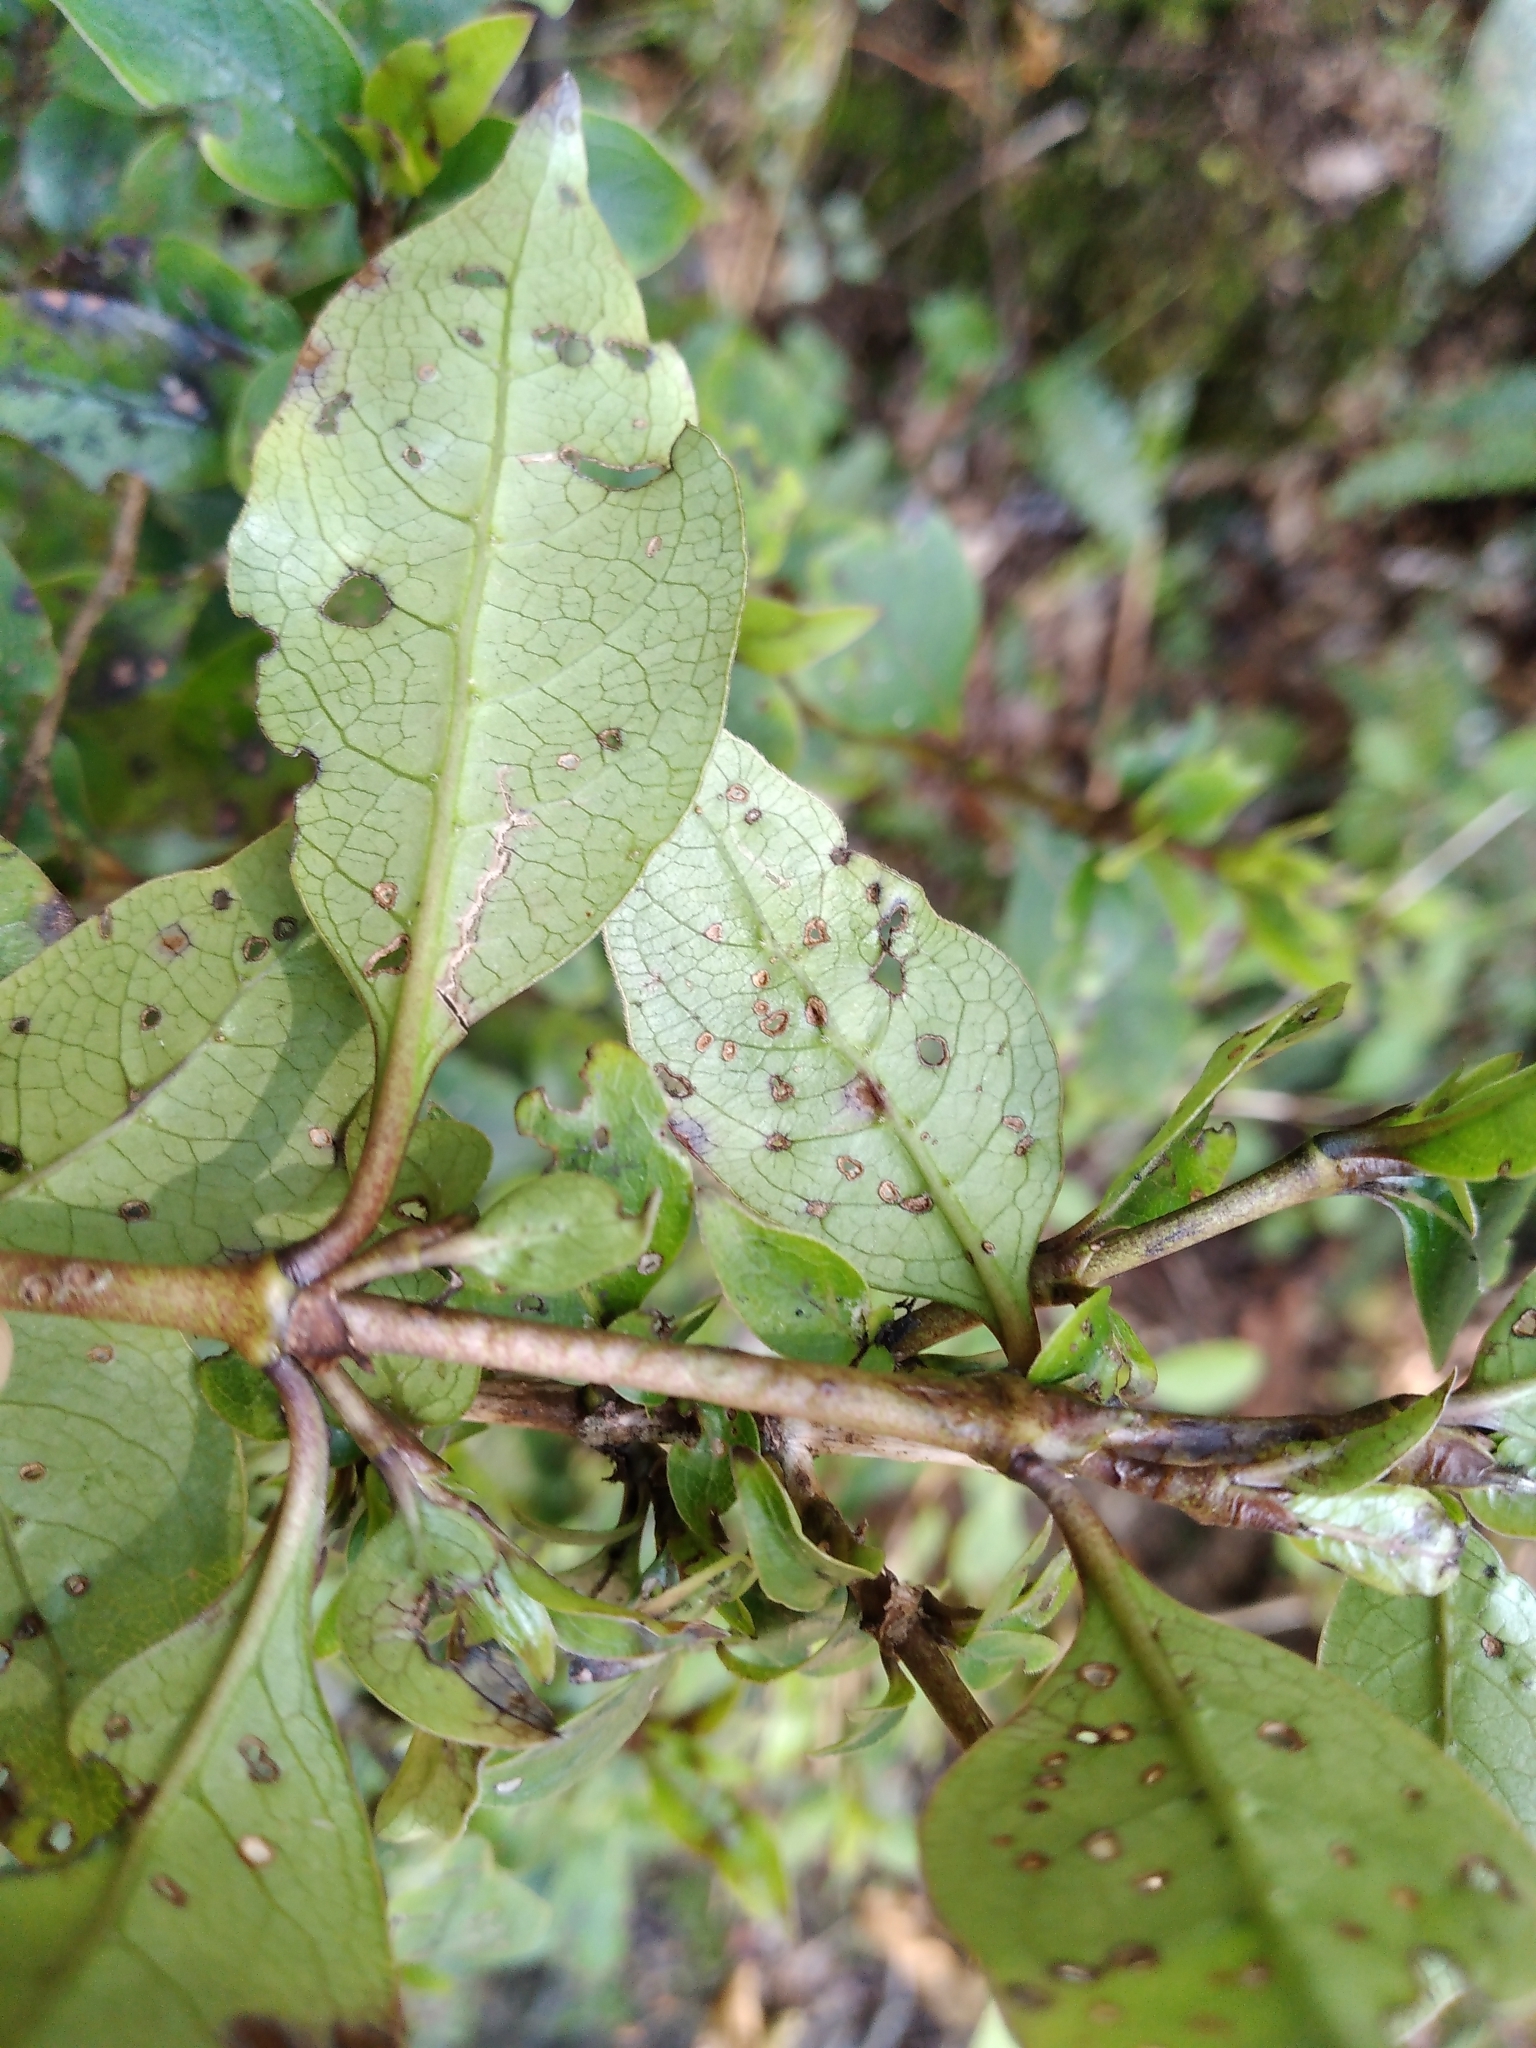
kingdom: Plantae
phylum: Tracheophyta
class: Magnoliopsida
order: Gentianales
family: Rubiaceae
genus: Coprosma
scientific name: Coprosma tenuifolia
